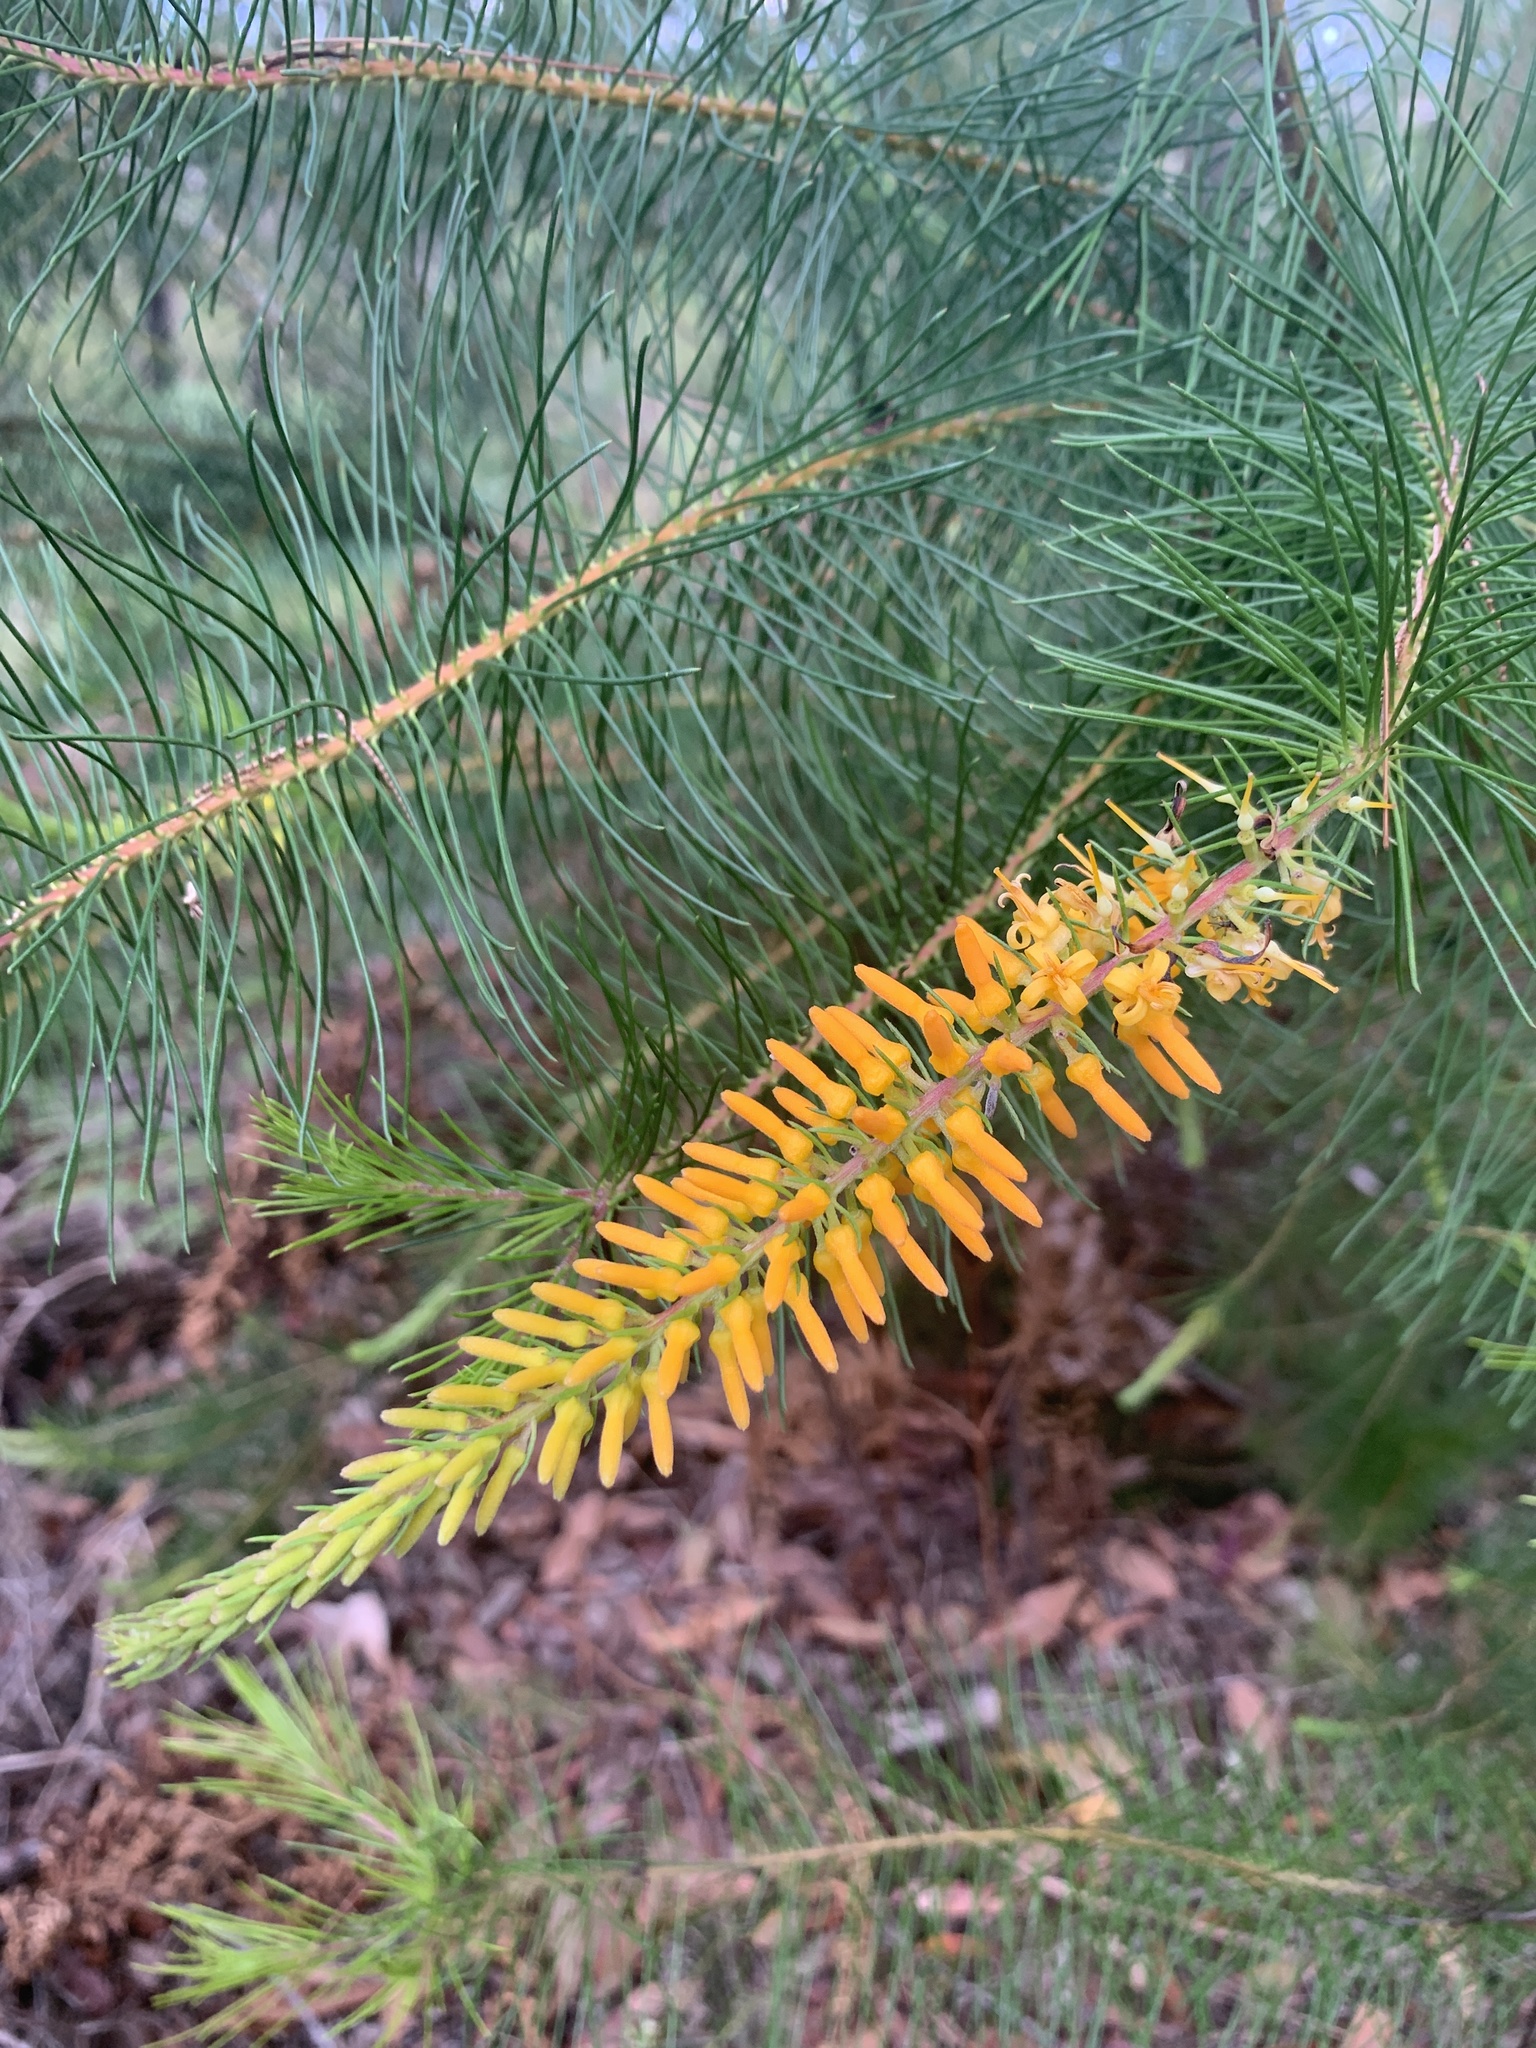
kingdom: Plantae
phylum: Tracheophyta
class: Magnoliopsida
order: Proteales
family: Proteaceae
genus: Persoonia
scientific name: Persoonia pinifolia
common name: Pine-leaf geebung
